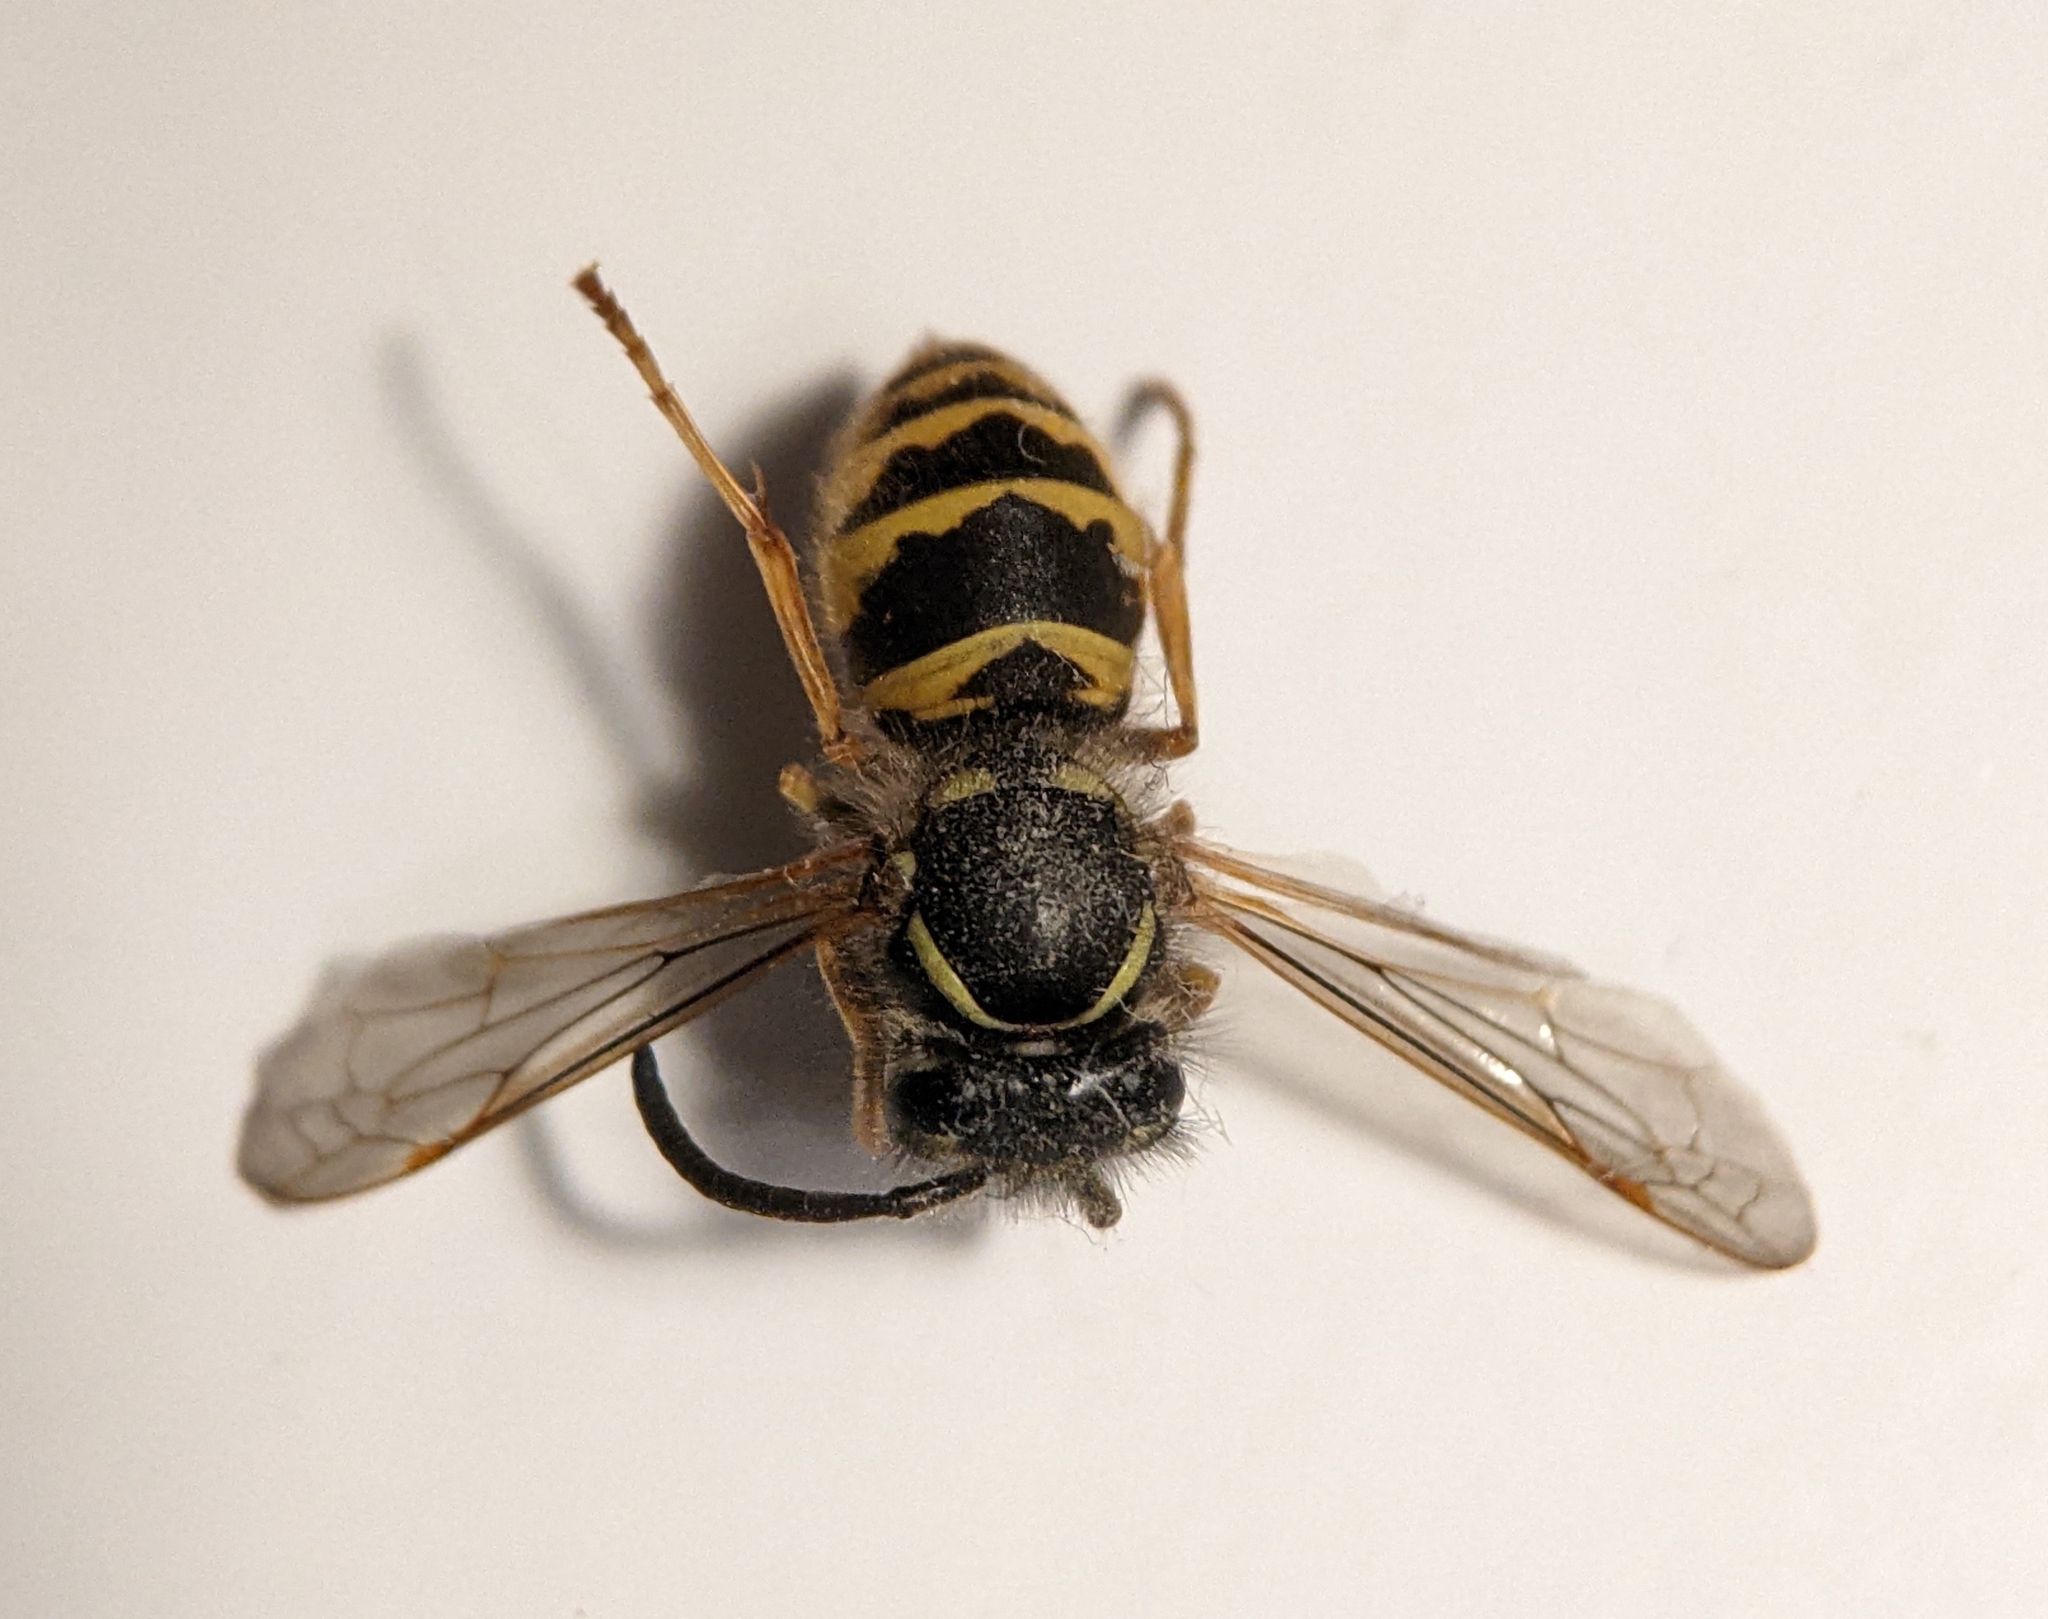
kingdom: Animalia
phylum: Arthropoda
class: Insecta
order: Hymenoptera
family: Vespidae
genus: Vespula
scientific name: Vespula vulgaris
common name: Common wasp
